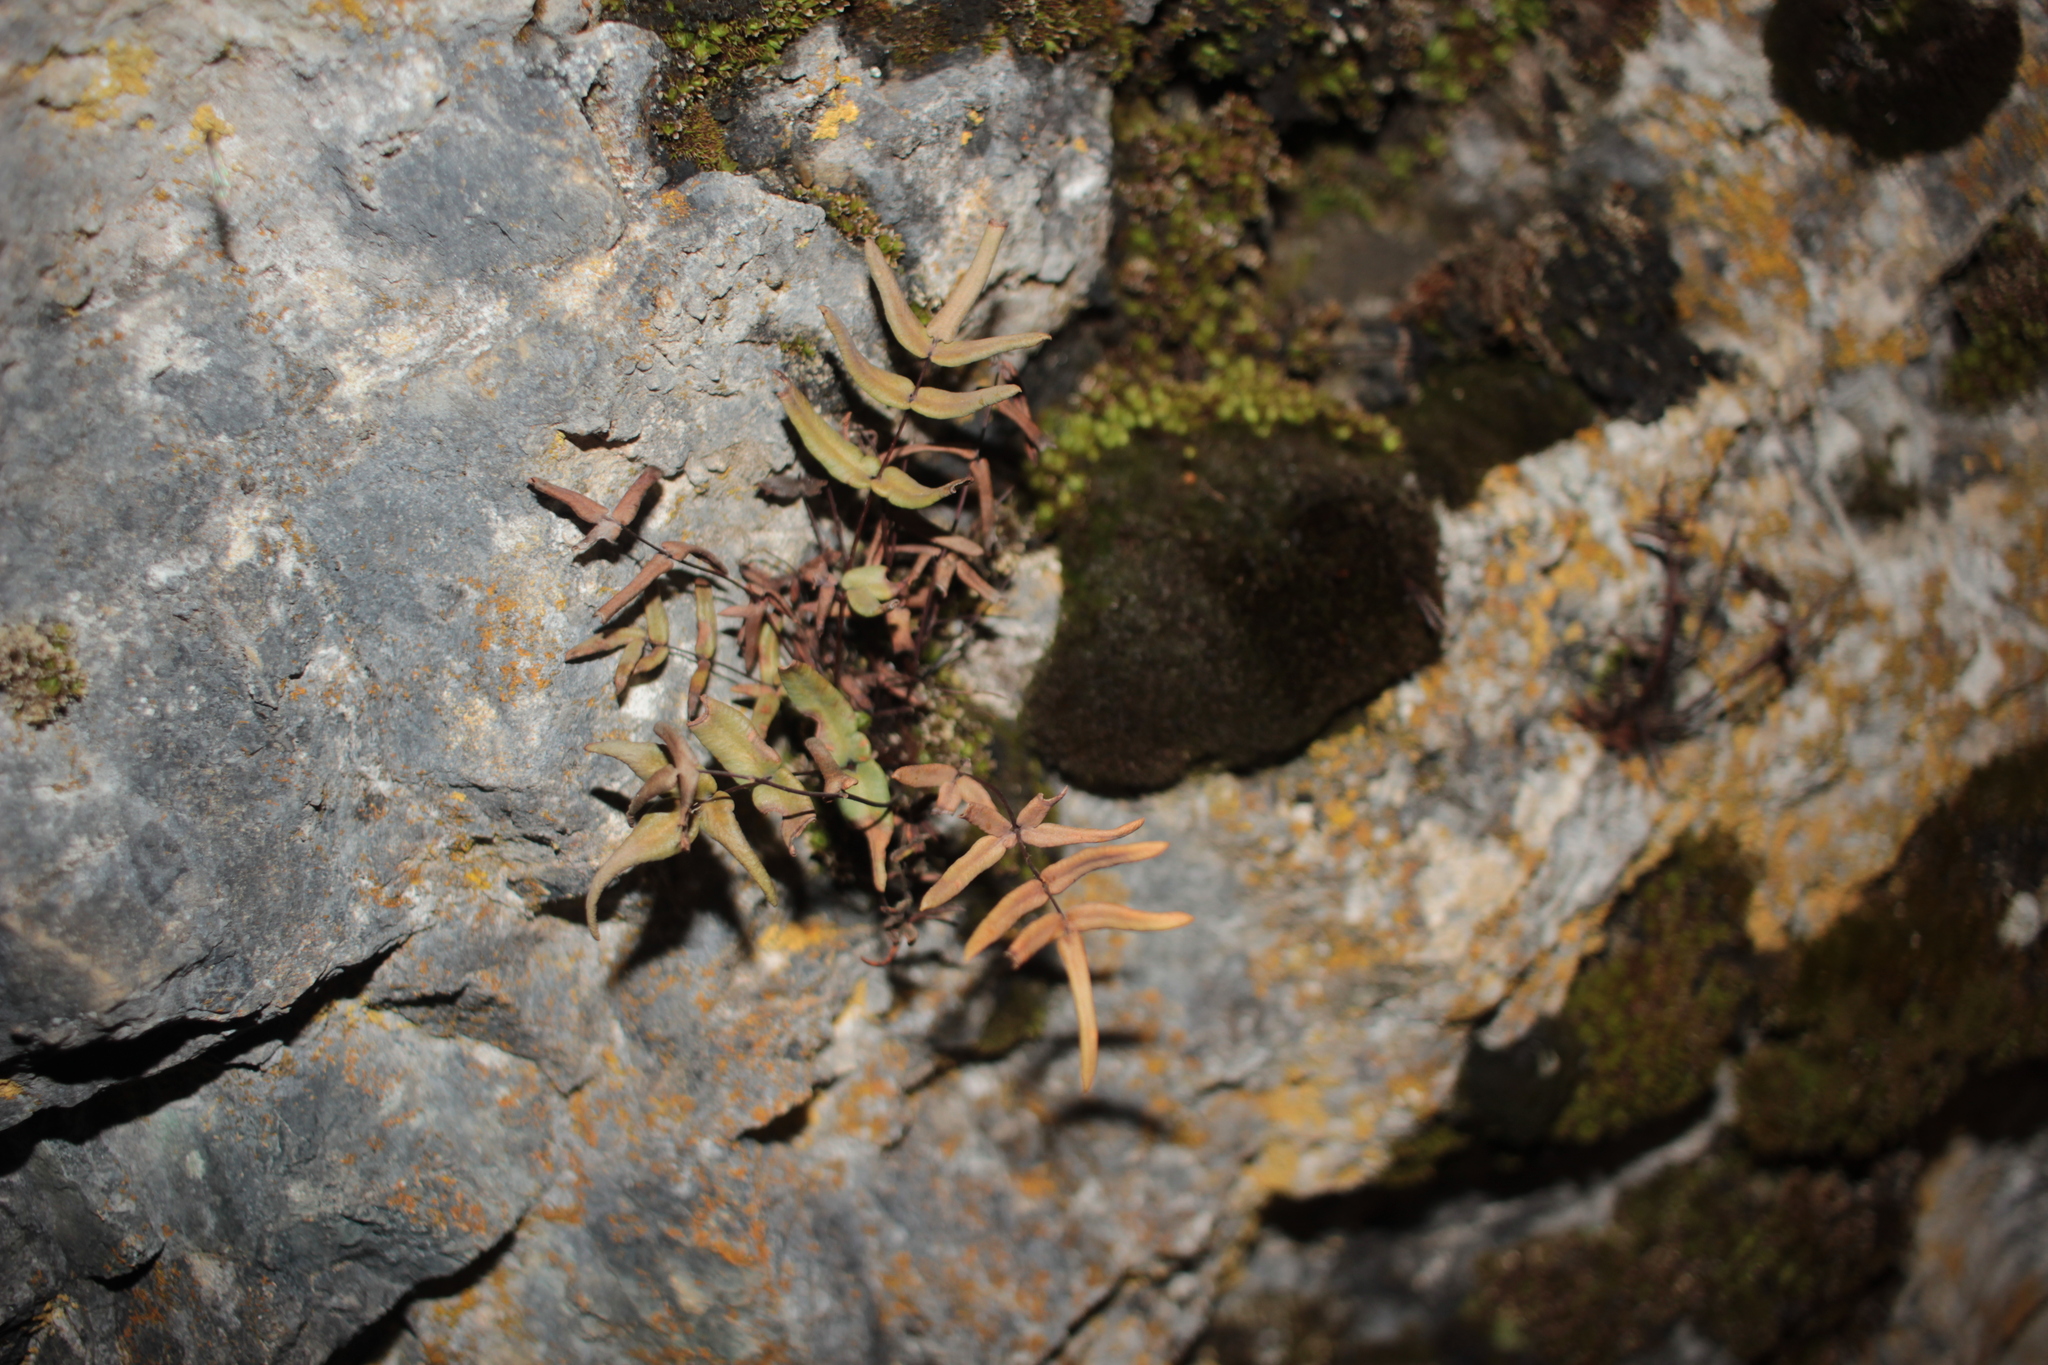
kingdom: Plantae
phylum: Tracheophyta
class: Polypodiopsida
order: Polypodiales
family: Pteridaceae
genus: Pellaea
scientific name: Pellaea atropurpurea
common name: Hairy cliffbrake
